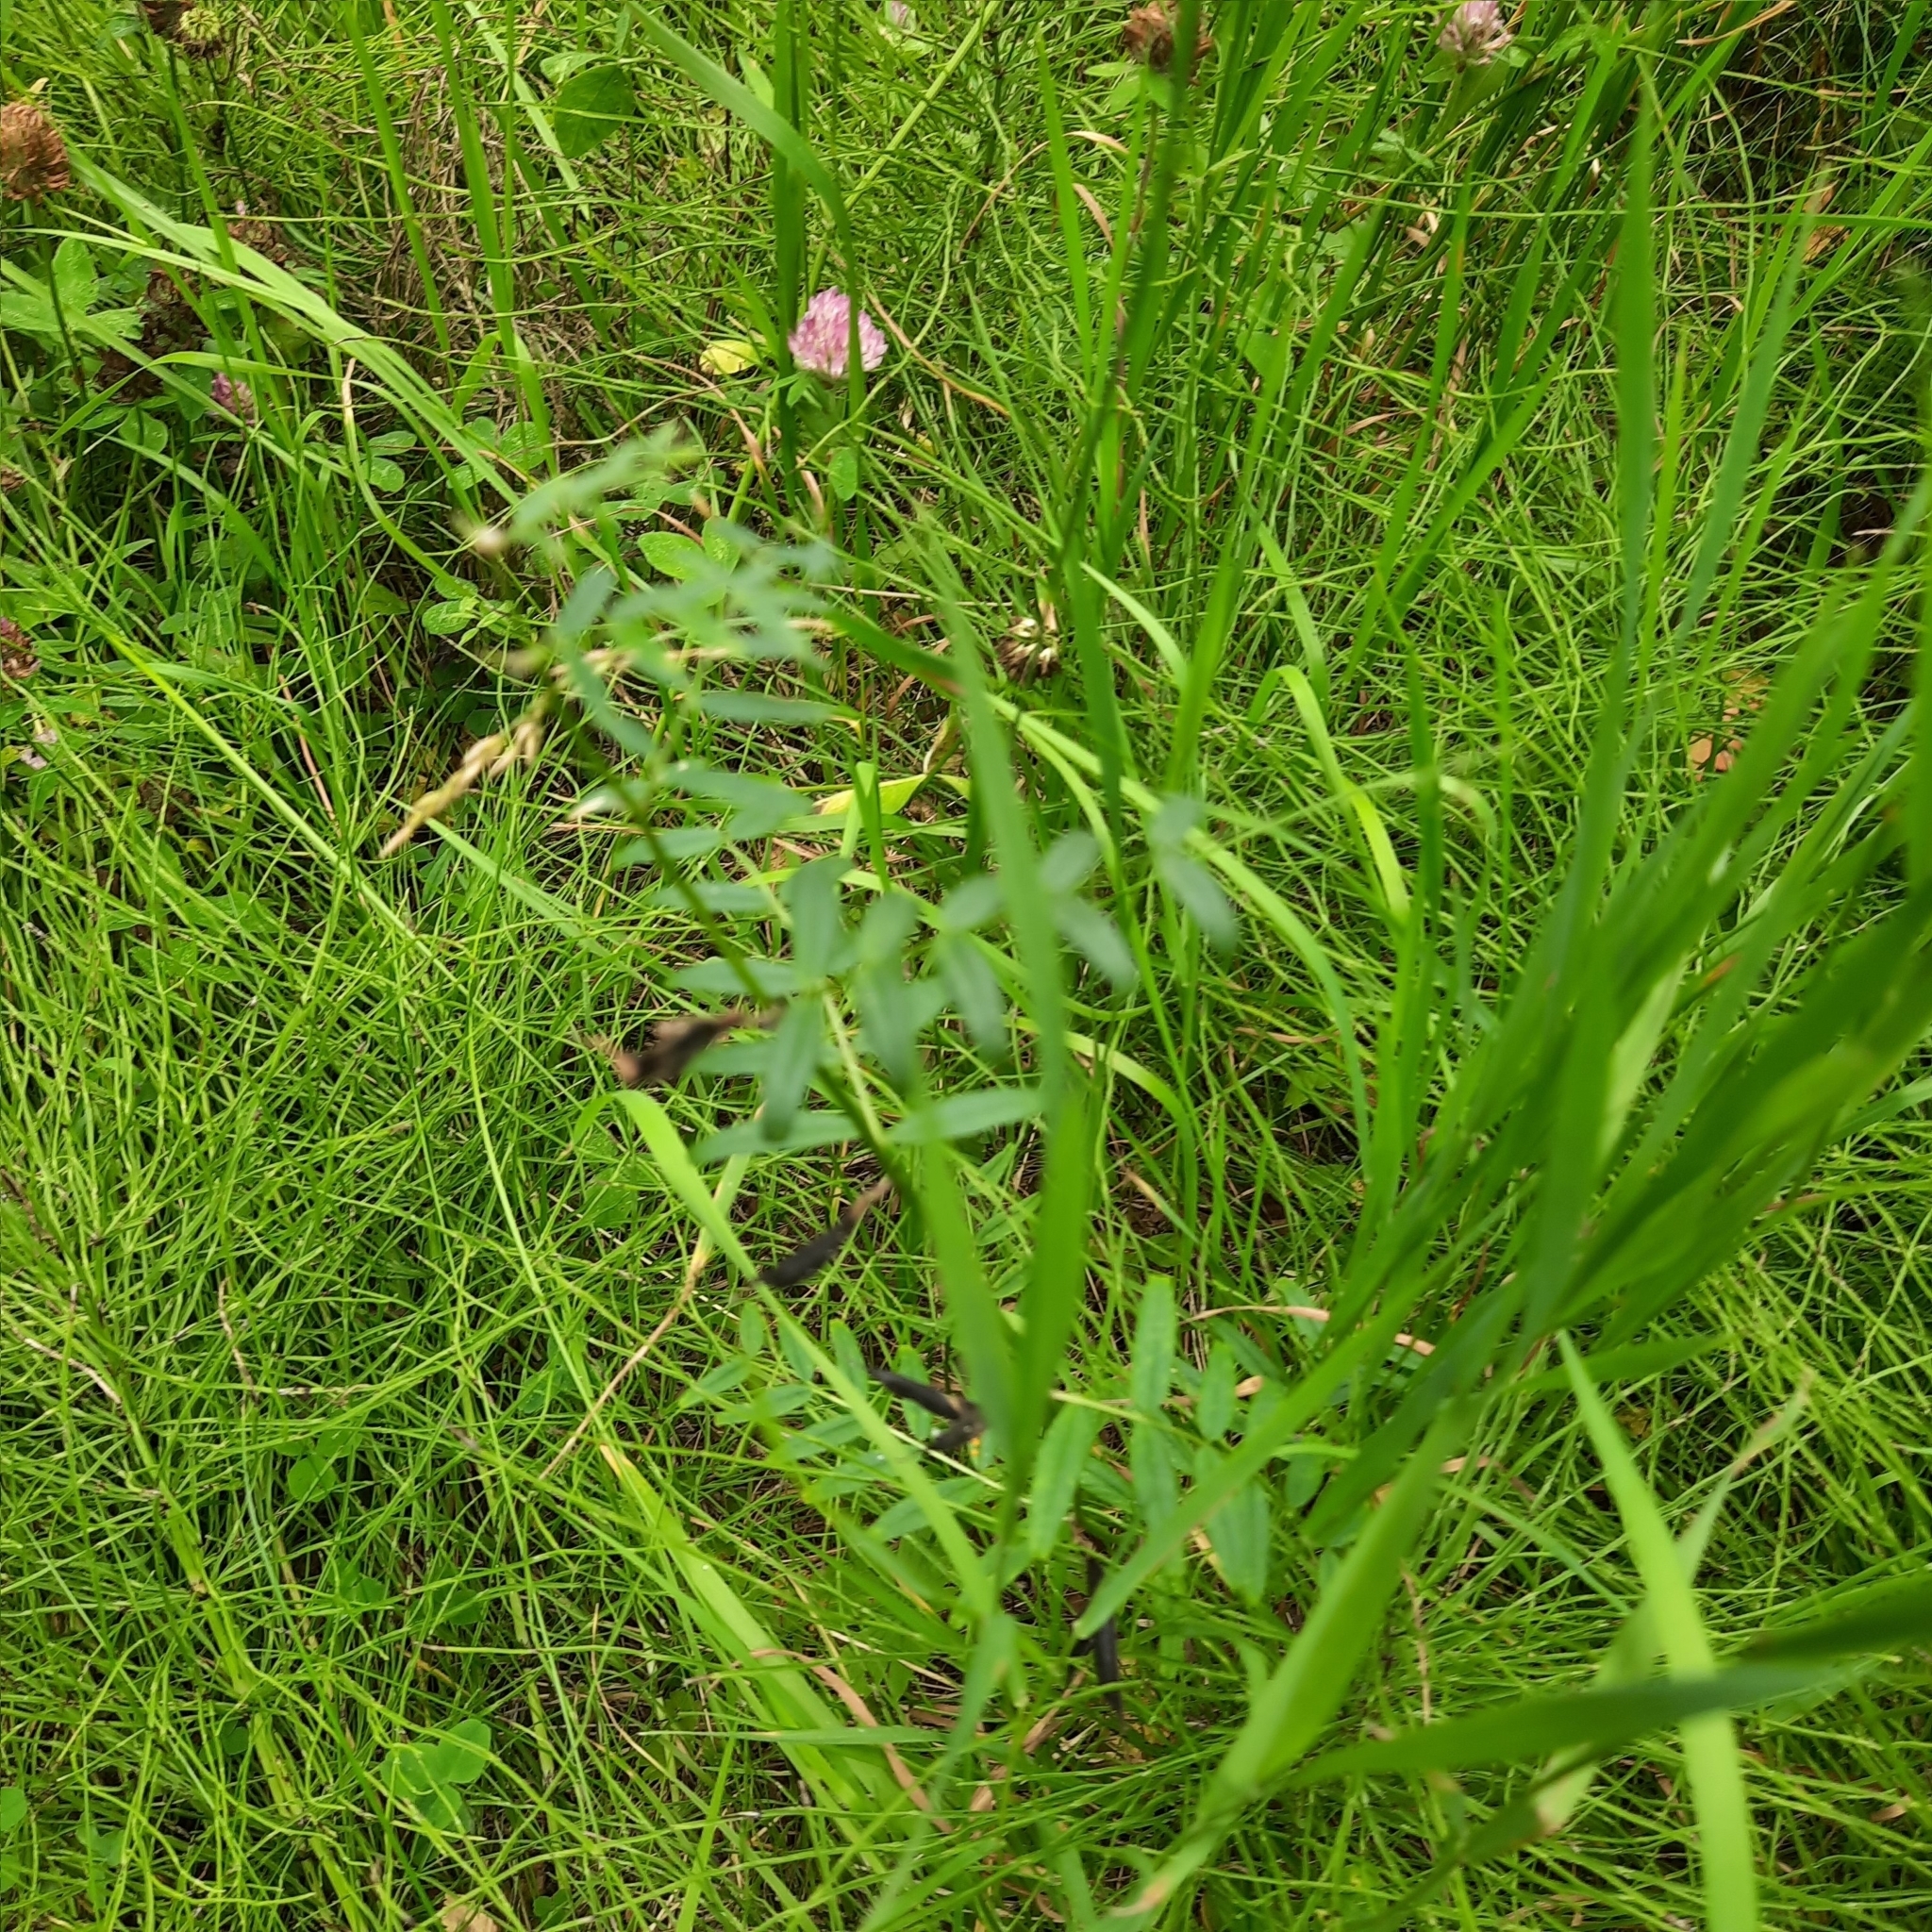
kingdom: Plantae
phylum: Tracheophyta
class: Magnoliopsida
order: Fabales
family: Fabaceae
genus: Vicia
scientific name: Vicia sepium
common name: Bush vetch
